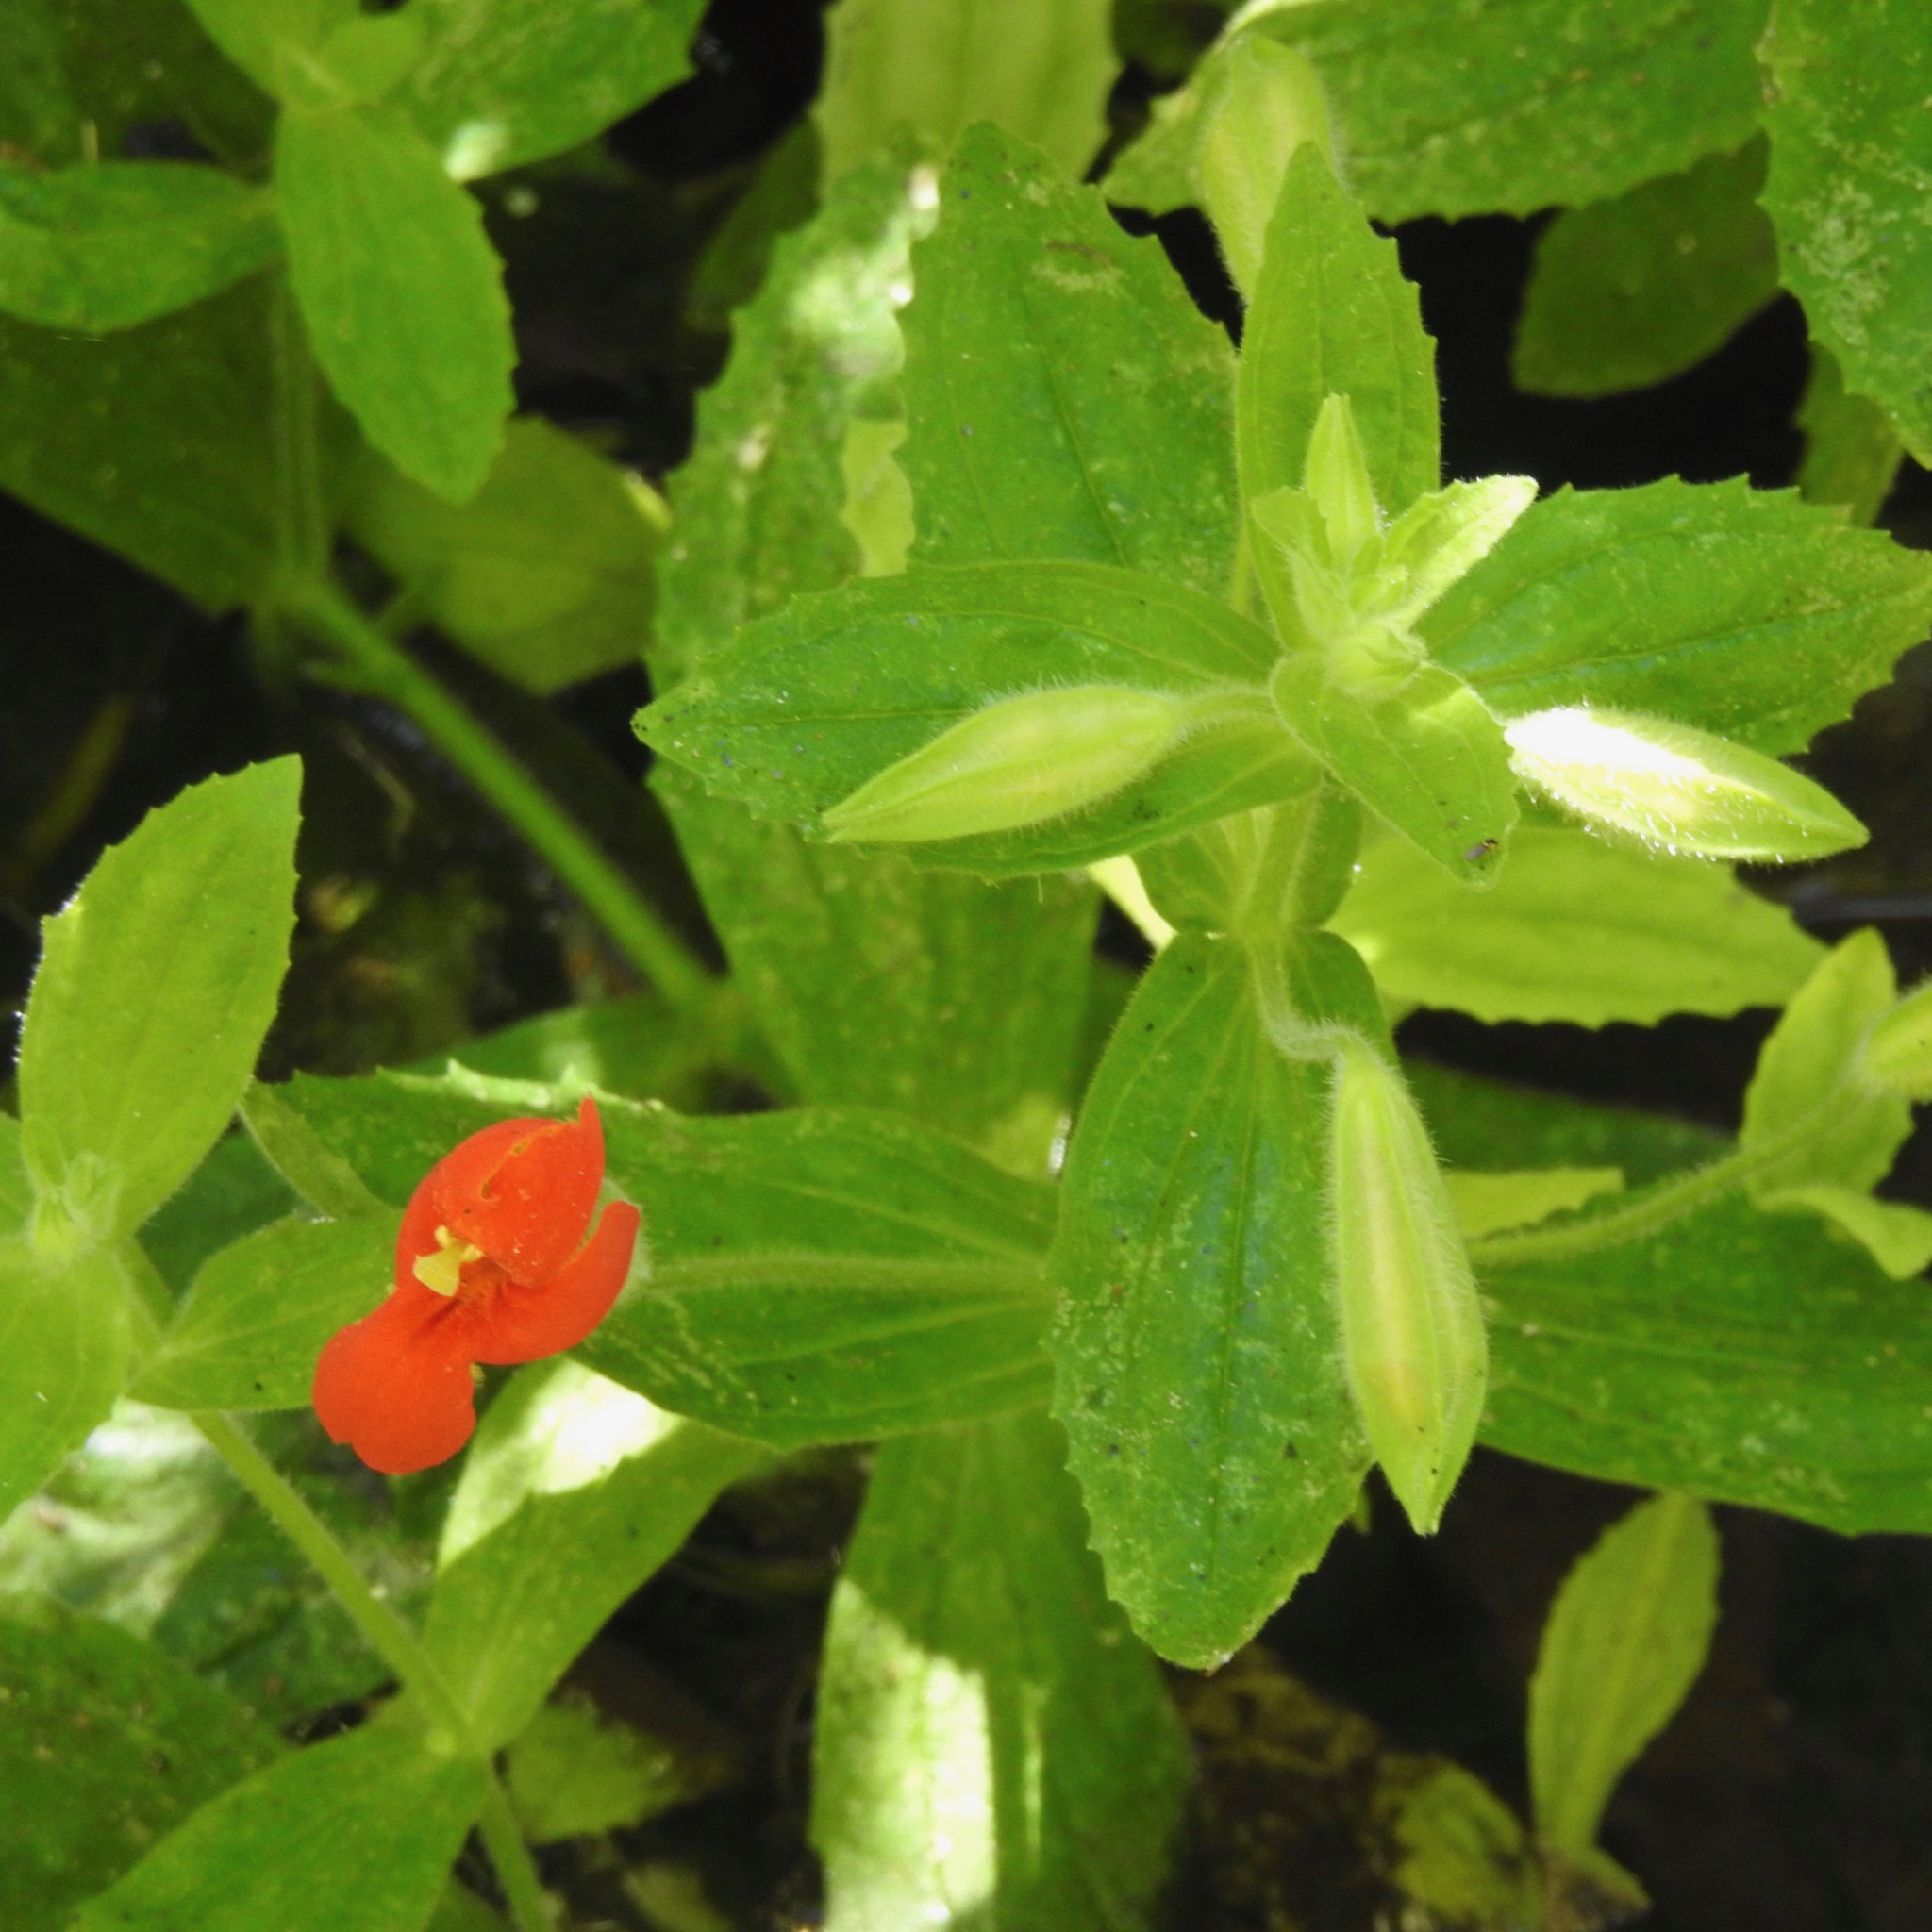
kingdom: Plantae
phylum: Tracheophyta
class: Magnoliopsida
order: Lamiales
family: Phrymaceae
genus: Erythranthe
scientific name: Erythranthe cardinalis
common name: Scarlet monkey-flower
